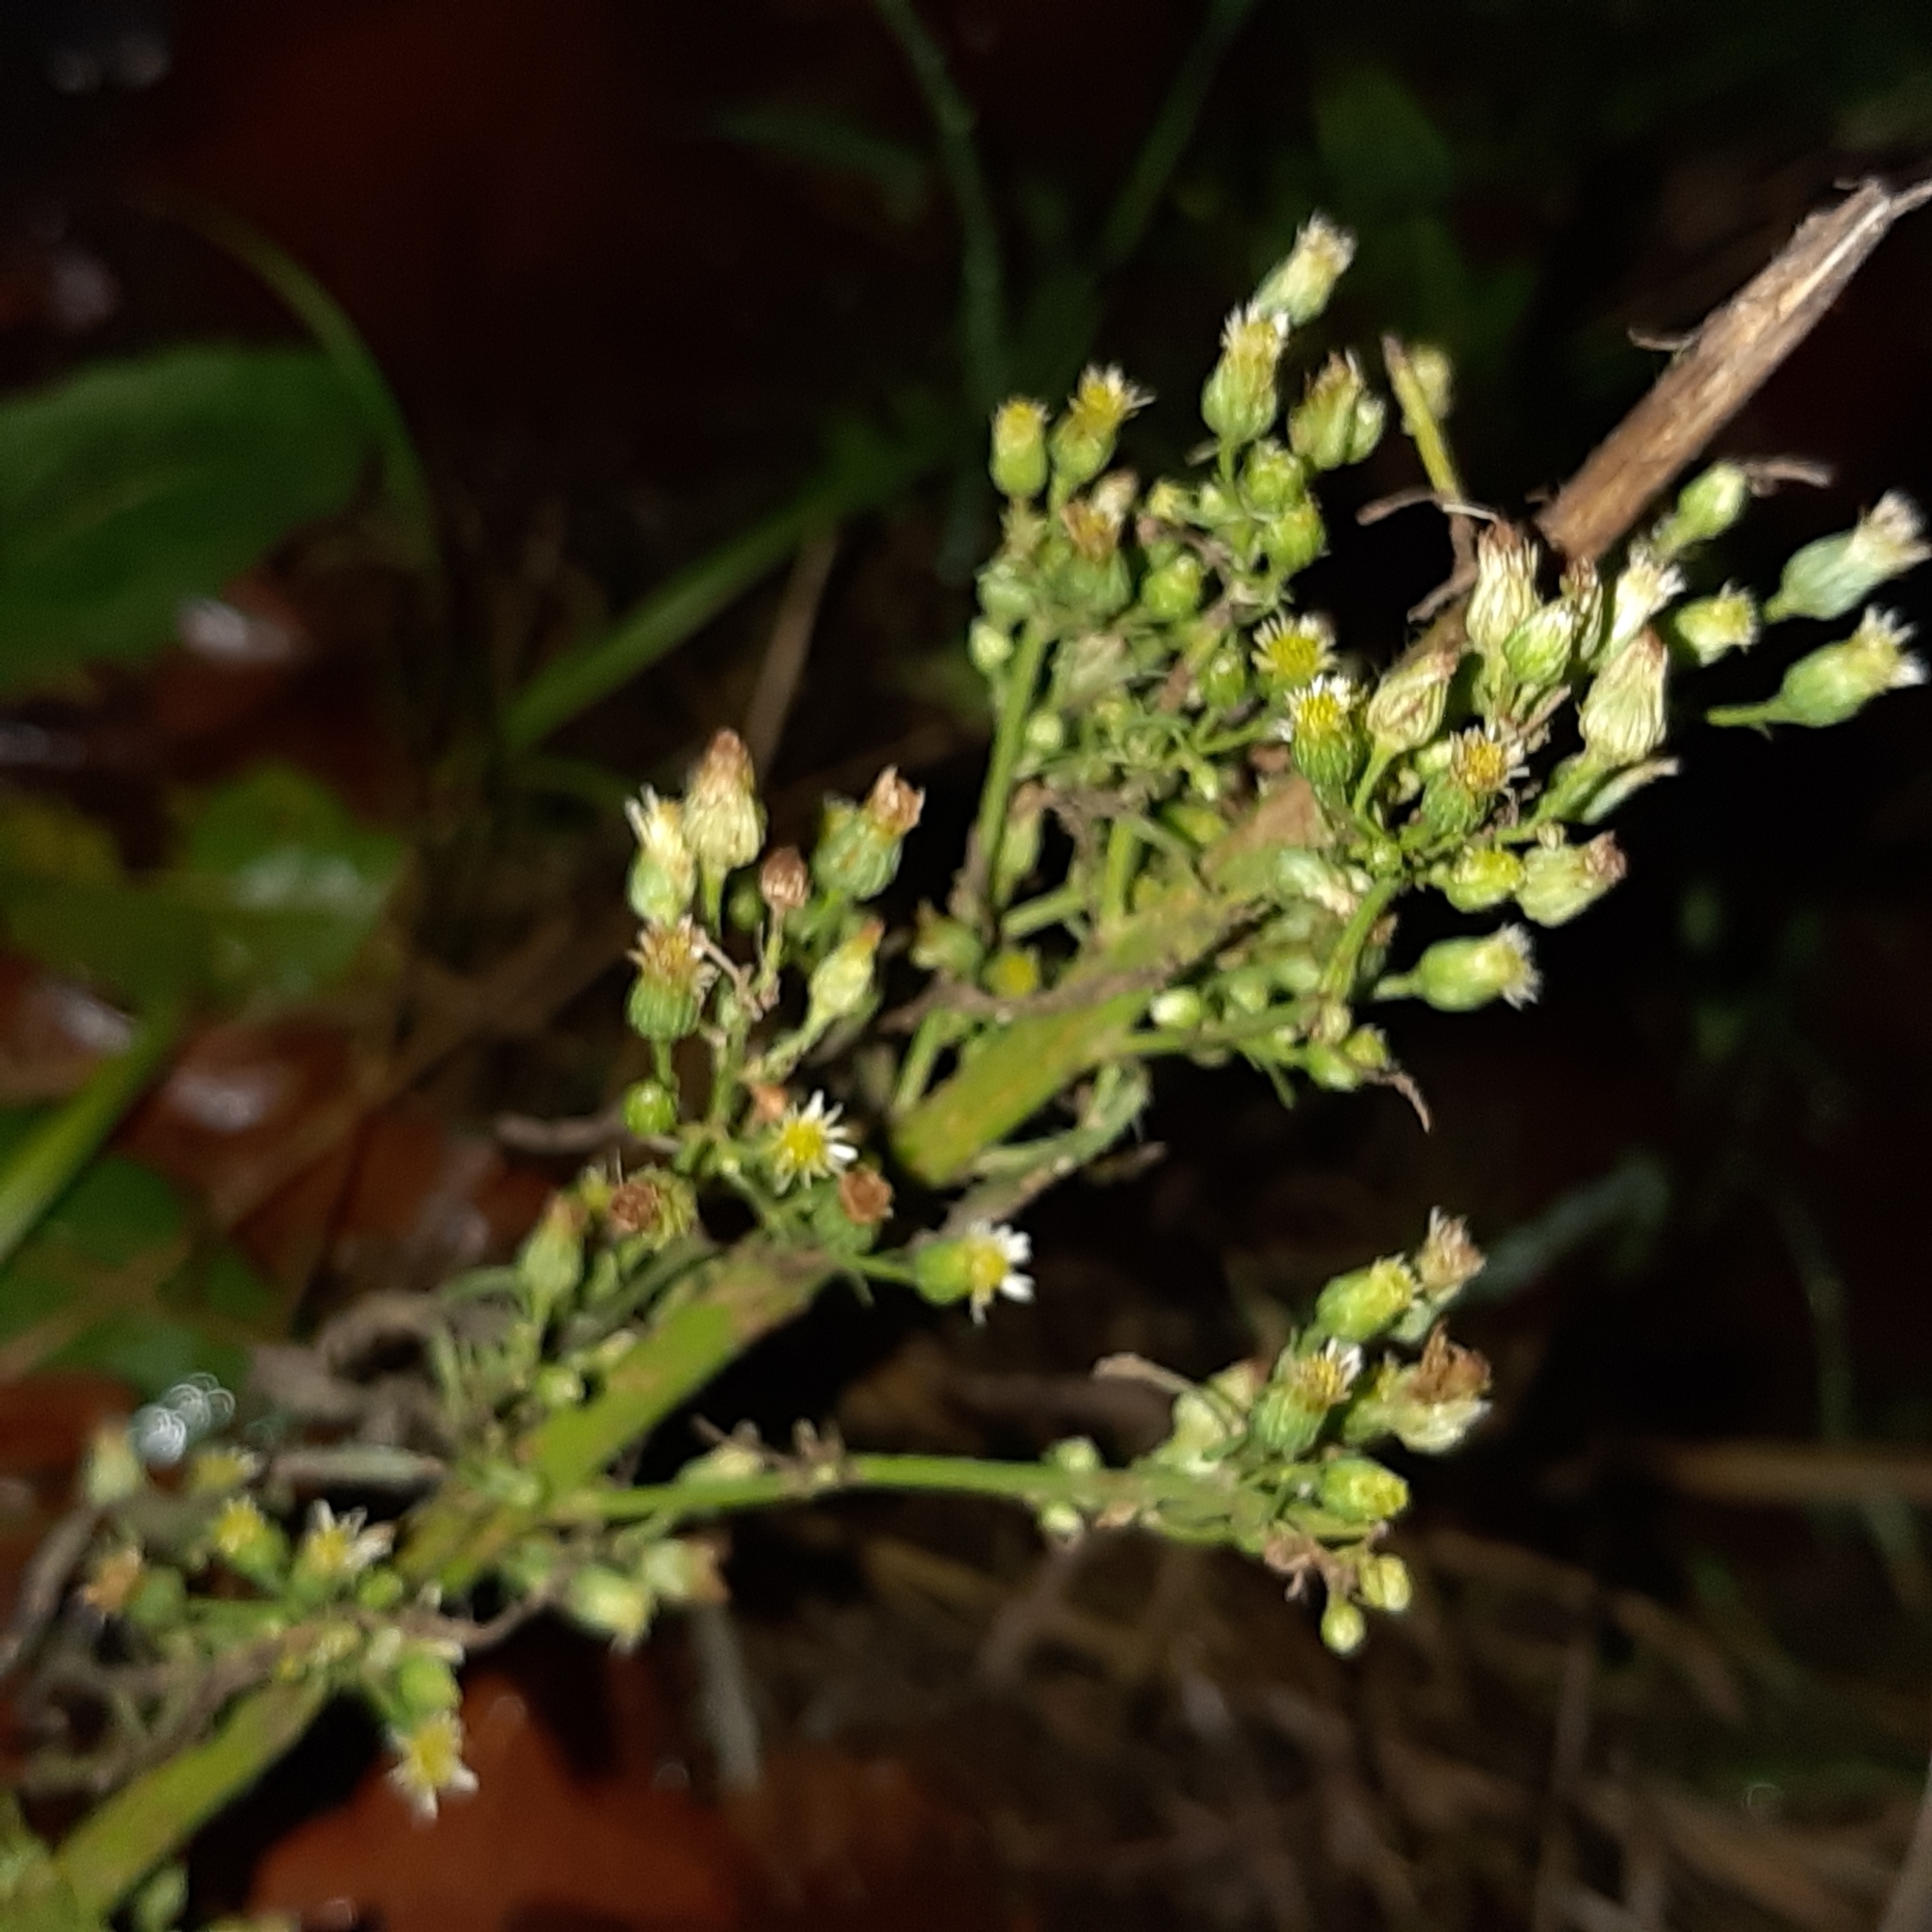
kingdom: Plantae
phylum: Tracheophyta
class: Magnoliopsida
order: Asterales
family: Asteraceae
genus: Erigeron
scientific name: Erigeron canadensis
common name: Canadian fleabane
